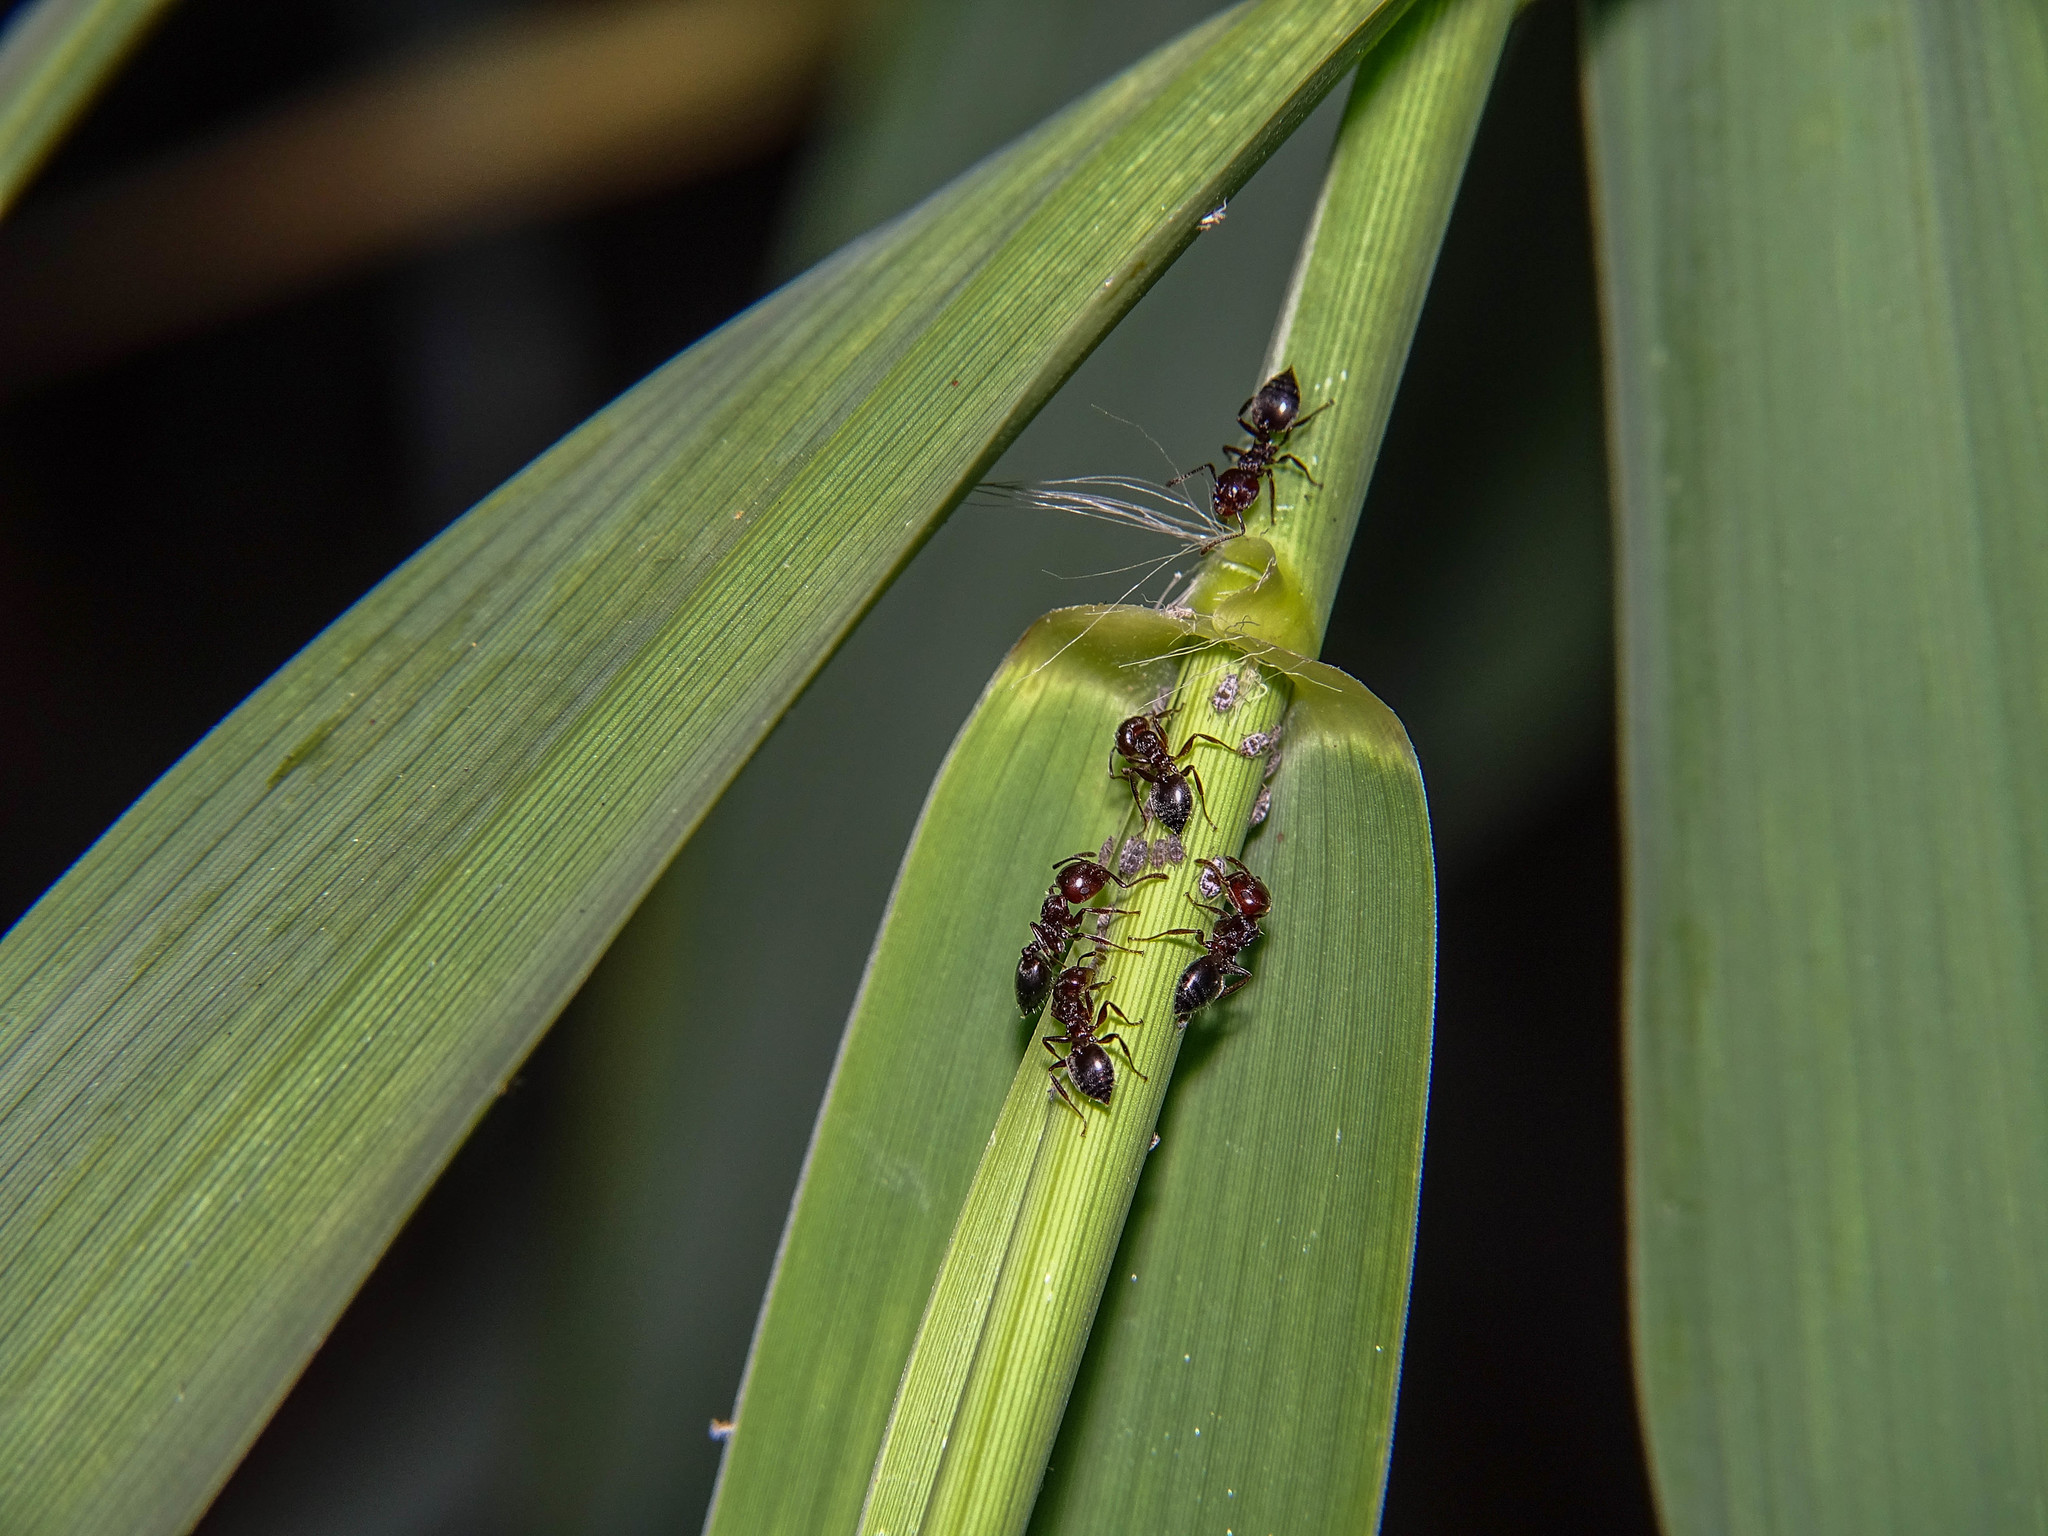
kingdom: Animalia
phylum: Arthropoda
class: Insecta
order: Hymenoptera
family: Formicidae
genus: Crematogaster
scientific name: Crematogaster schmidti
